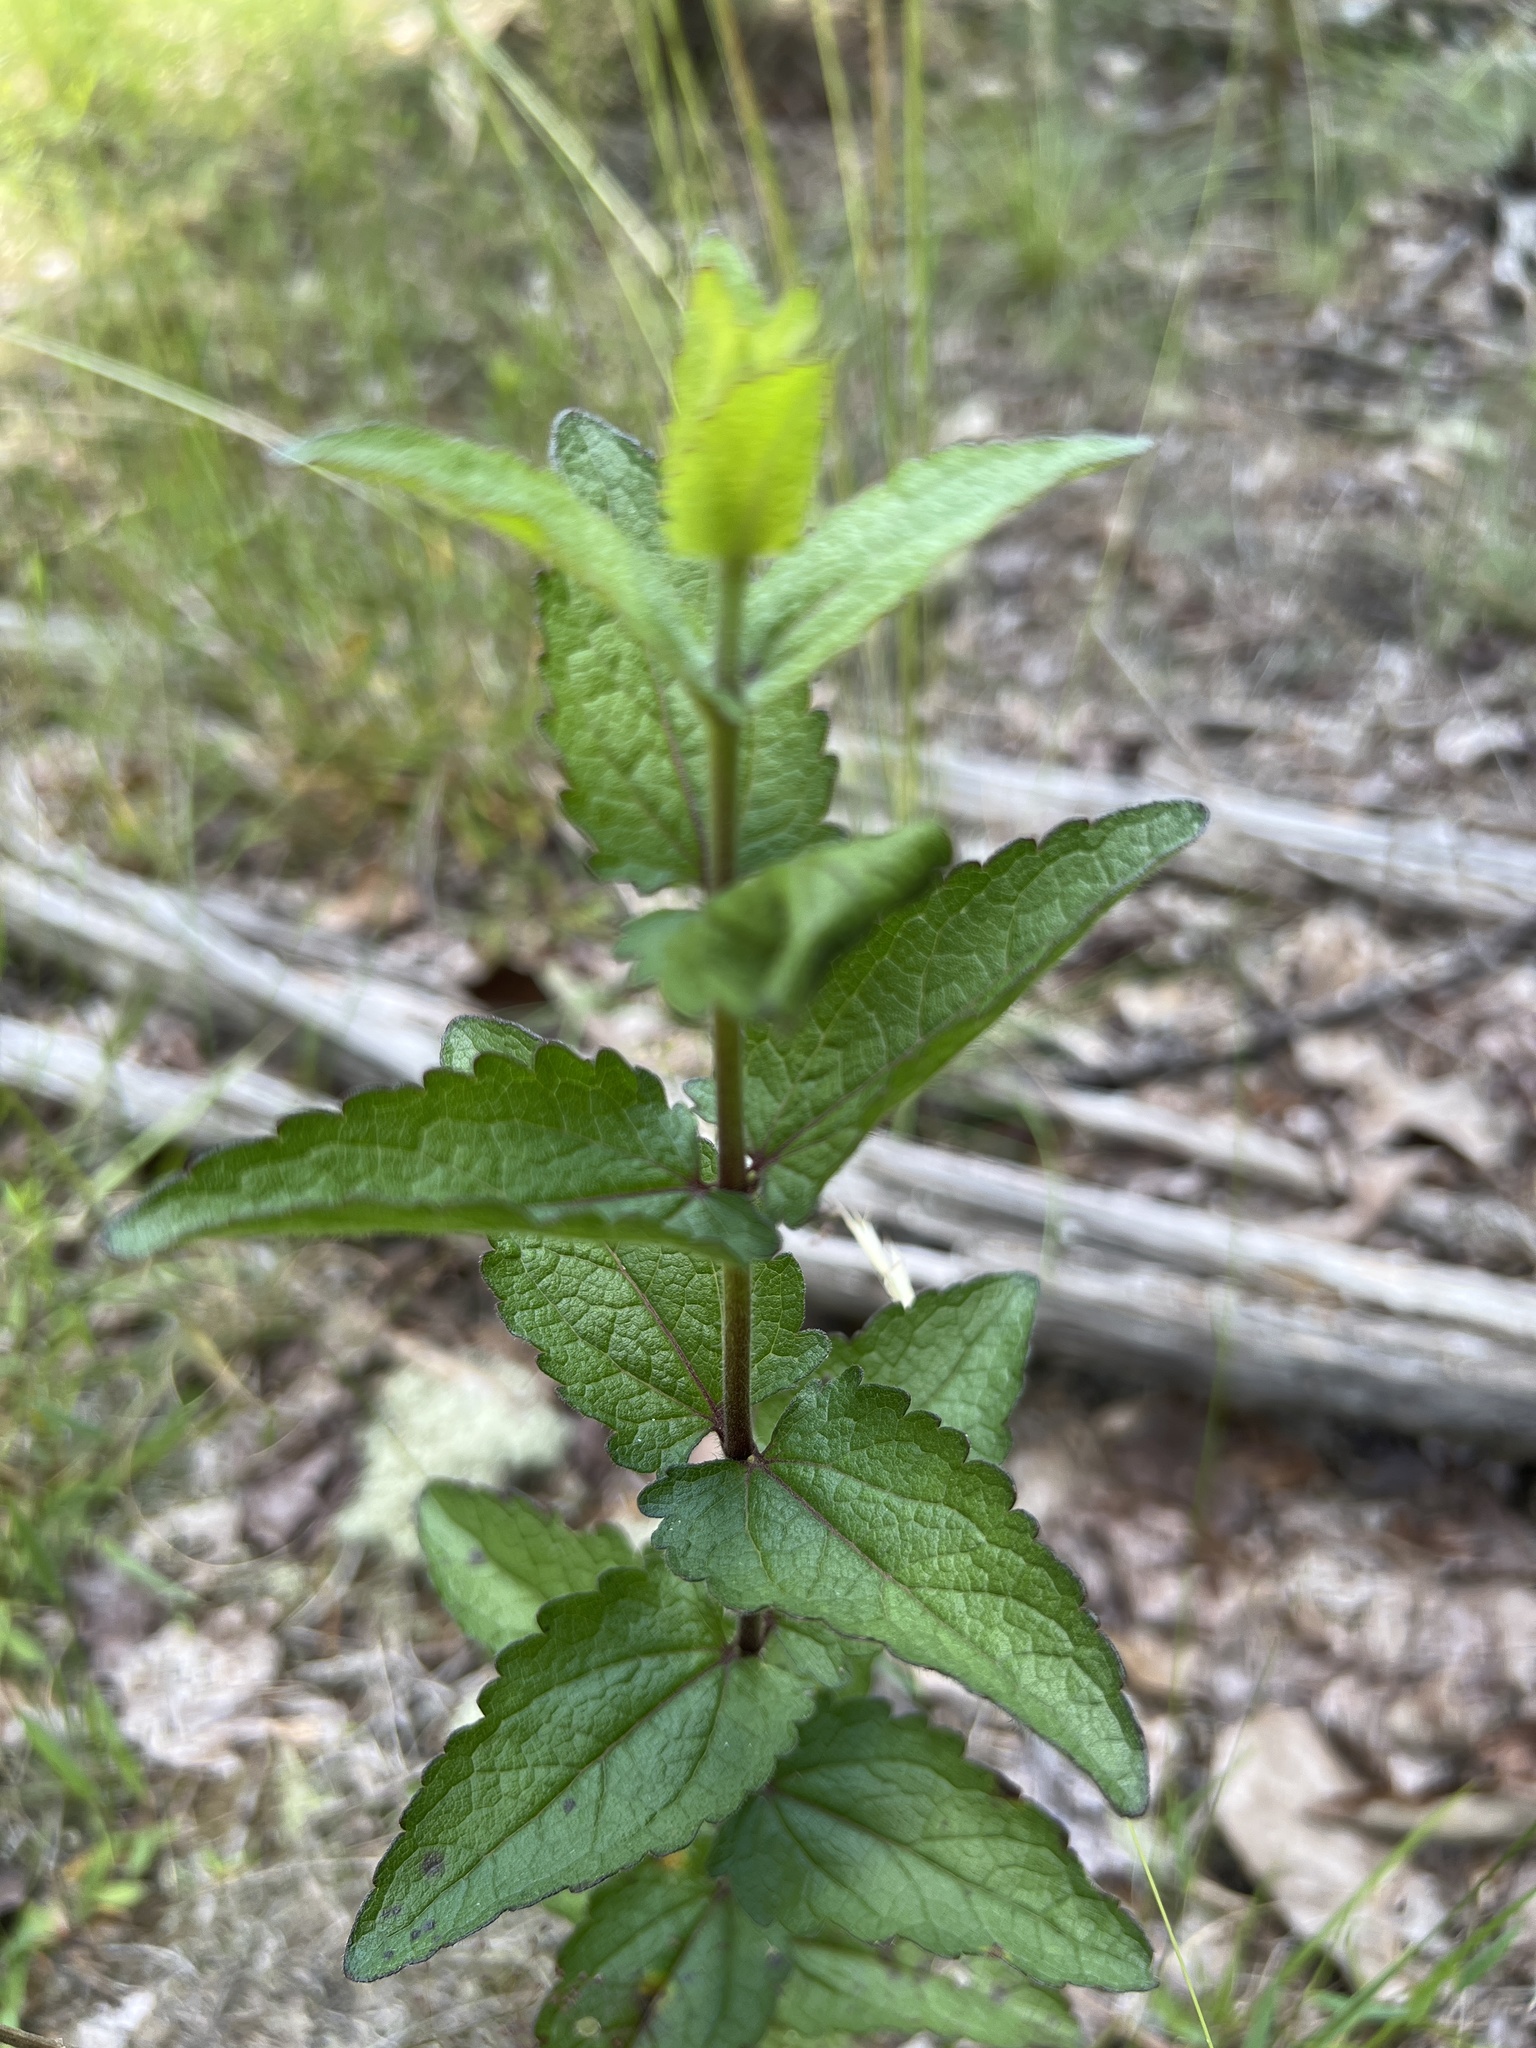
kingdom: Plantae
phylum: Tracheophyta
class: Magnoliopsida
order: Asterales
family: Asteraceae
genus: Eupatorium
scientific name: Eupatorium pilosum
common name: Rough boneset
